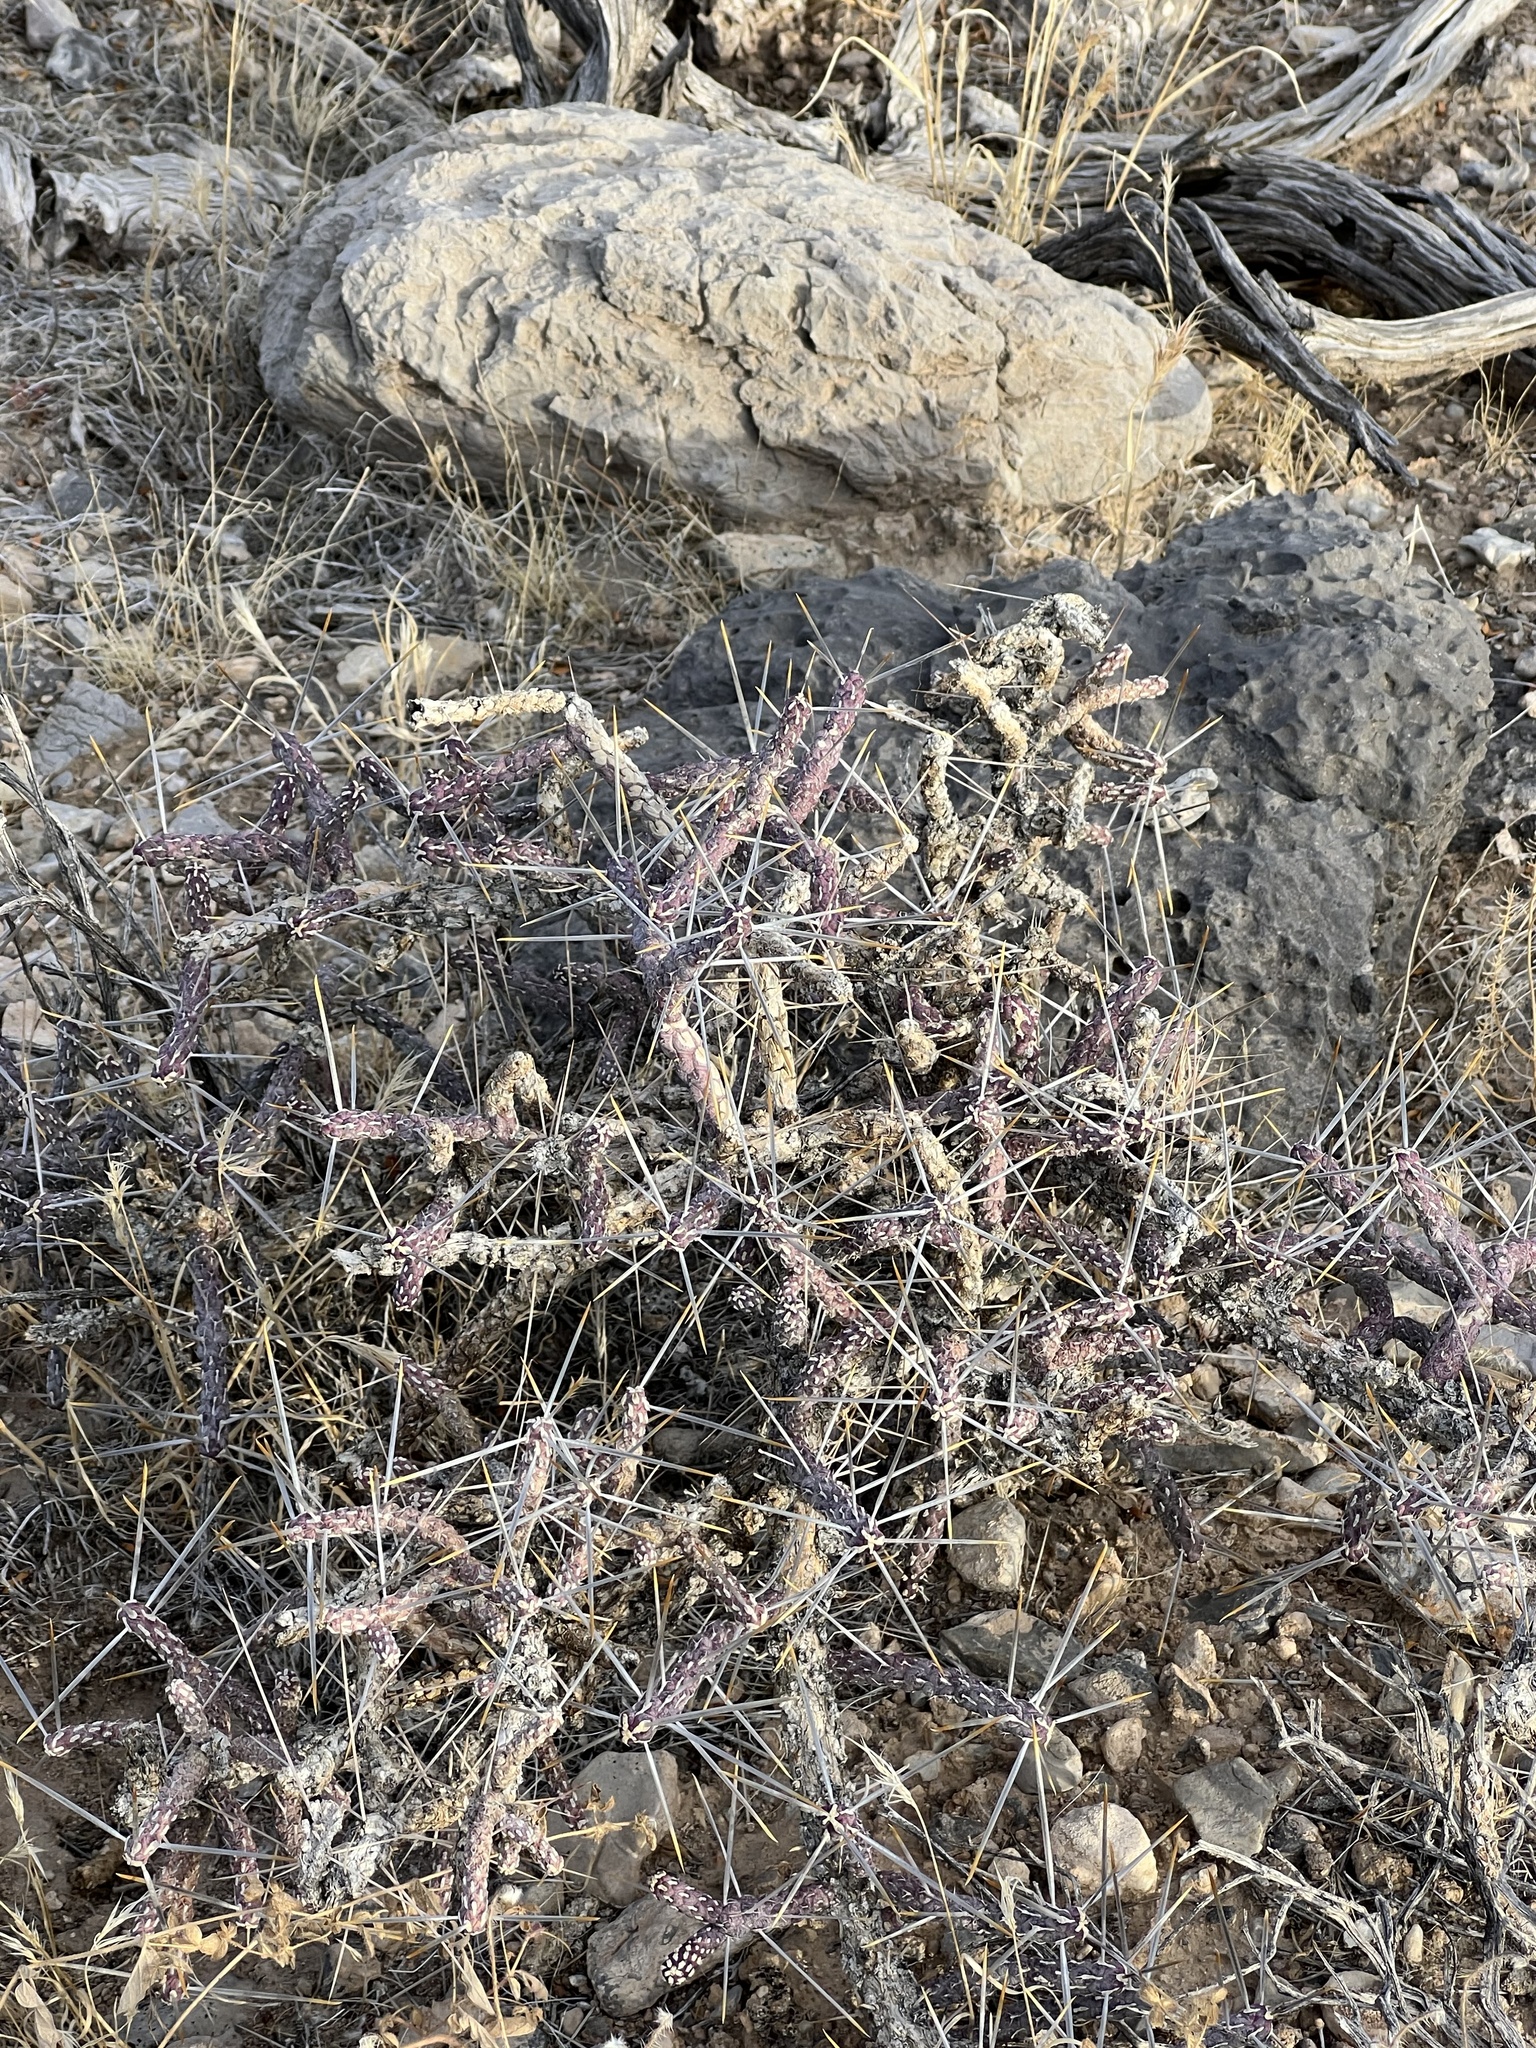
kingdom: Plantae
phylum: Tracheophyta
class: Magnoliopsida
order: Caryophyllales
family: Cactaceae
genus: Cylindropuntia
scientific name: Cylindropuntia ramosissima
